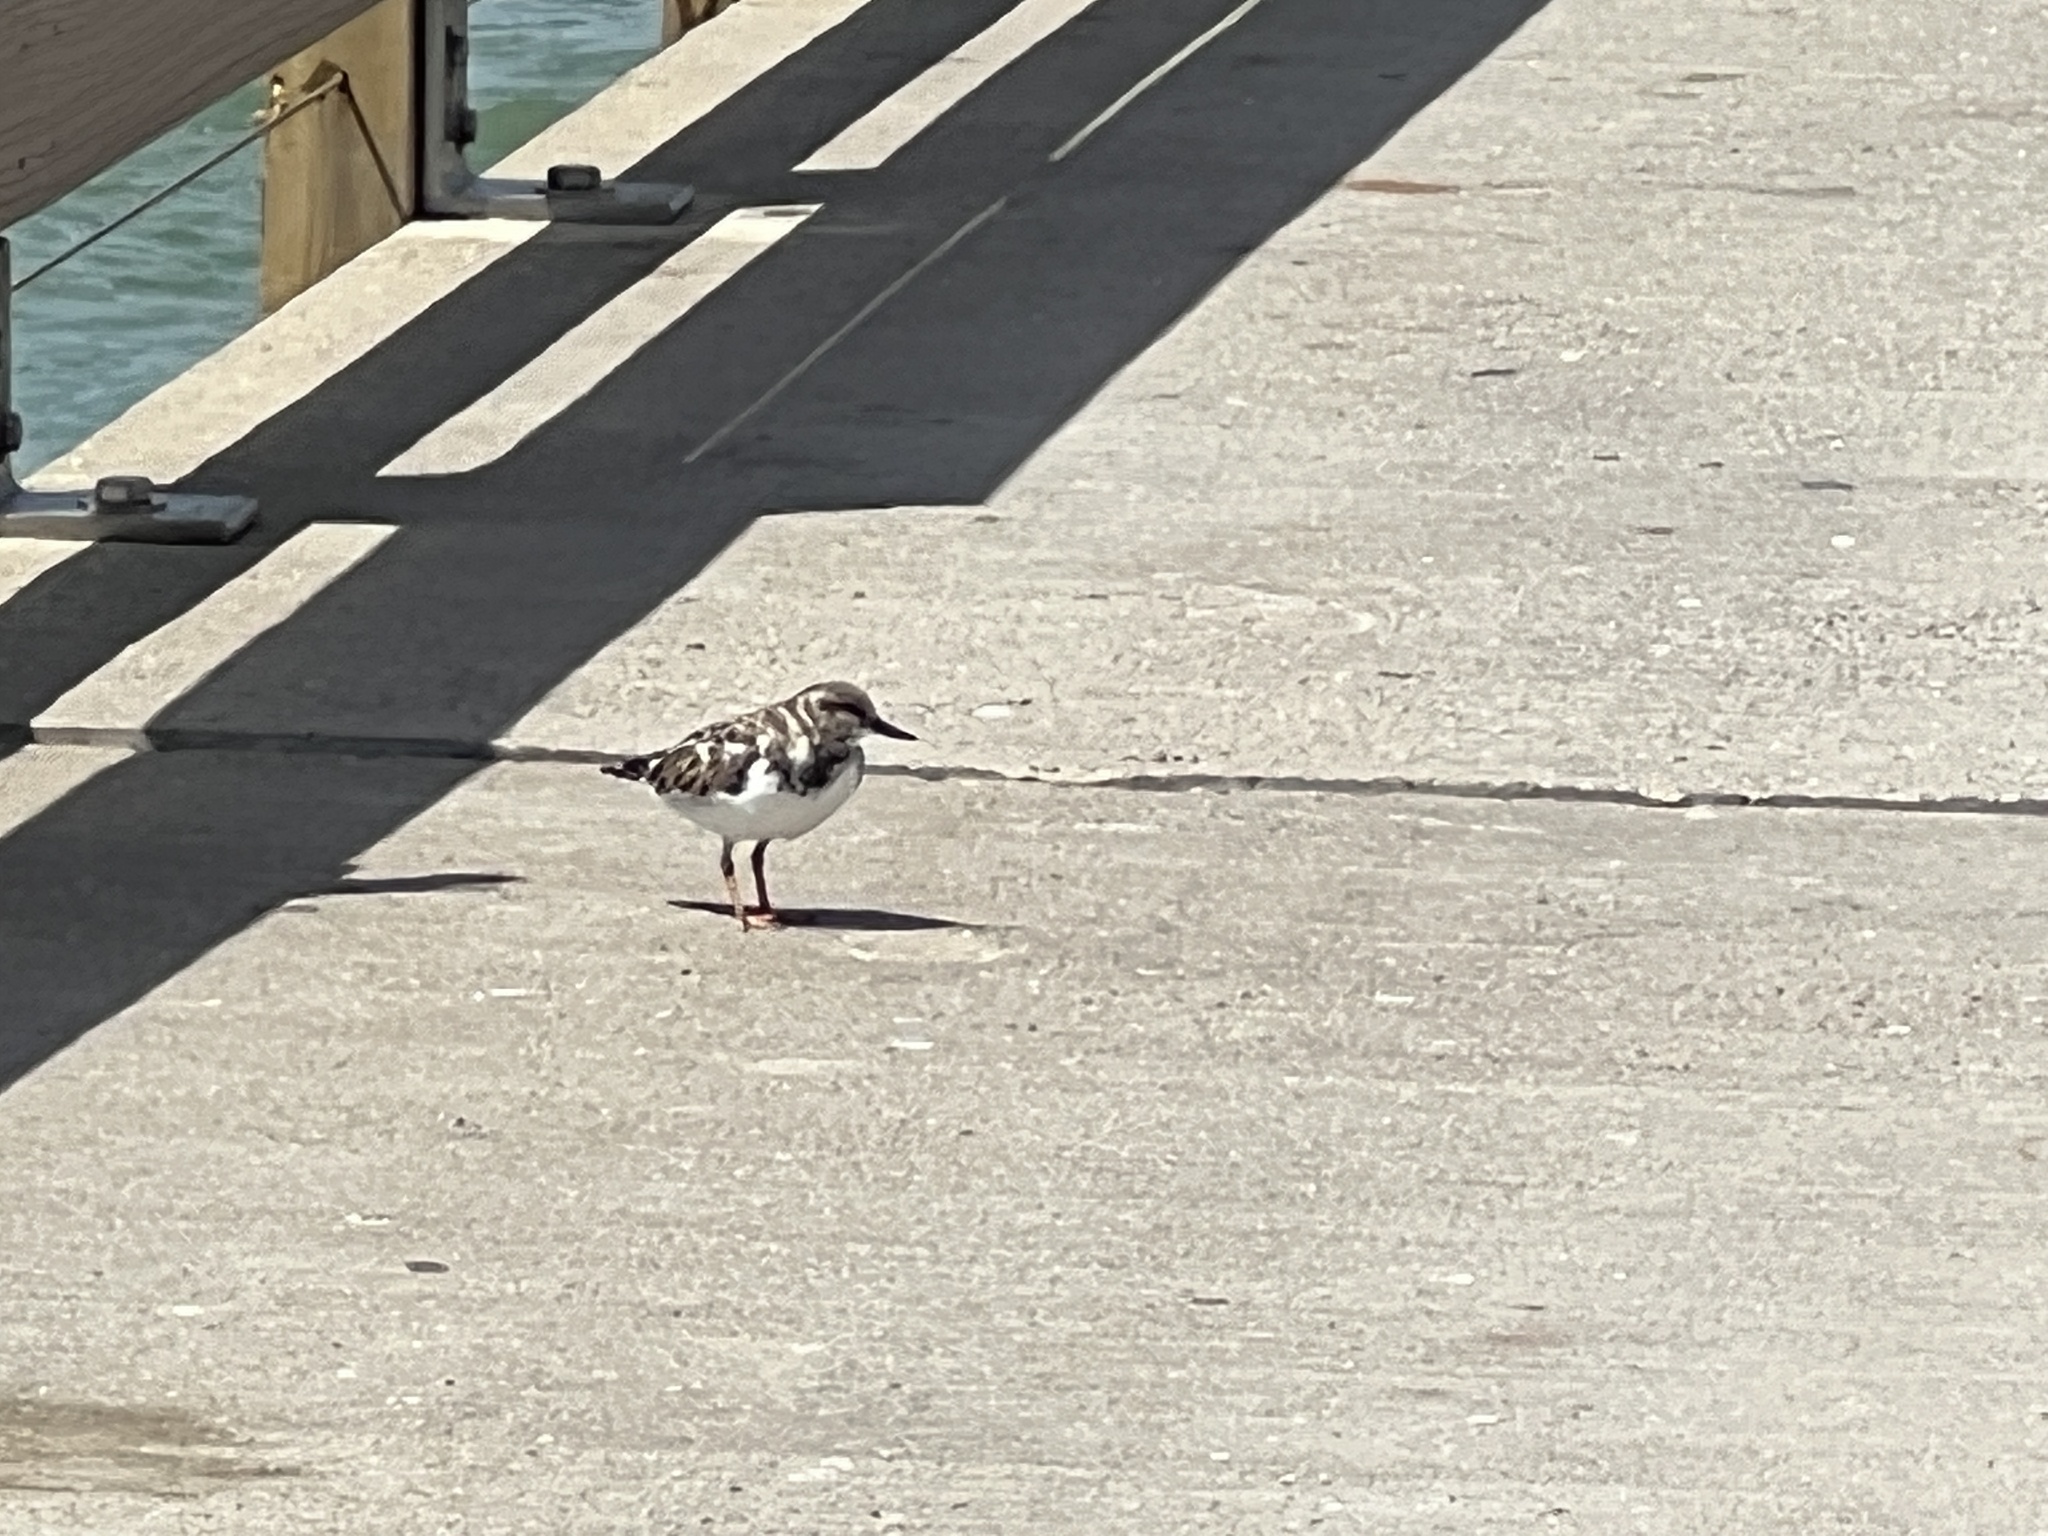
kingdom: Animalia
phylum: Chordata
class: Aves
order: Charadriiformes
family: Scolopacidae
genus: Arenaria
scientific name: Arenaria interpres
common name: Ruddy turnstone
